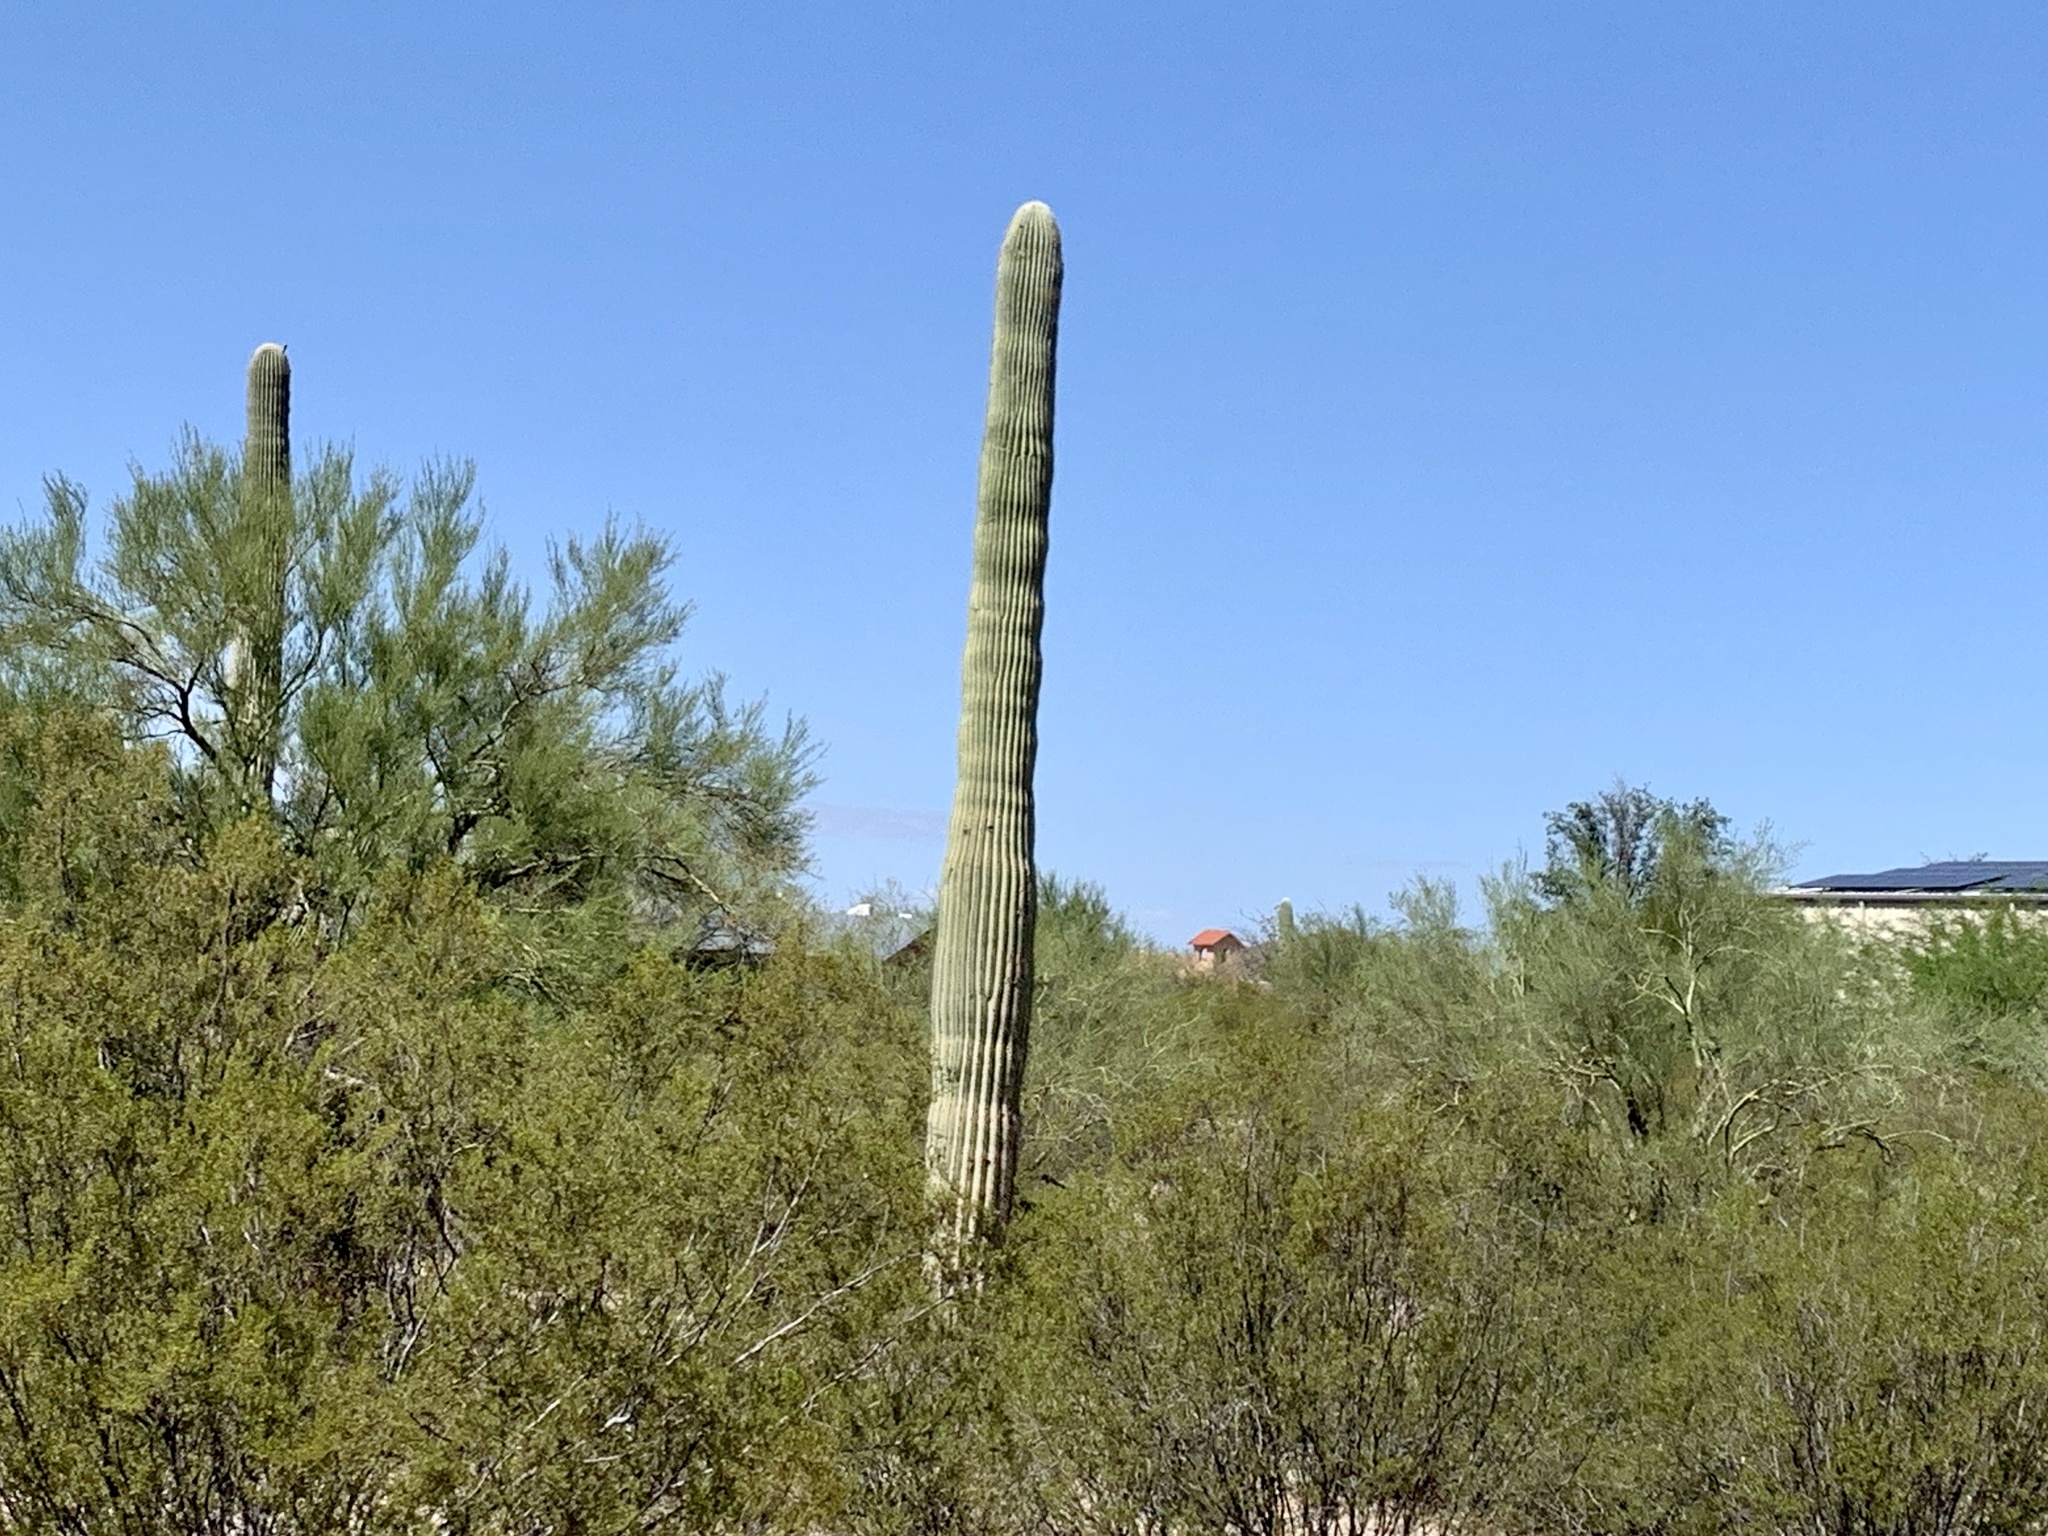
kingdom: Plantae
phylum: Tracheophyta
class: Magnoliopsida
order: Caryophyllales
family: Cactaceae
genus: Carnegiea
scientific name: Carnegiea gigantea
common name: Saguaro
